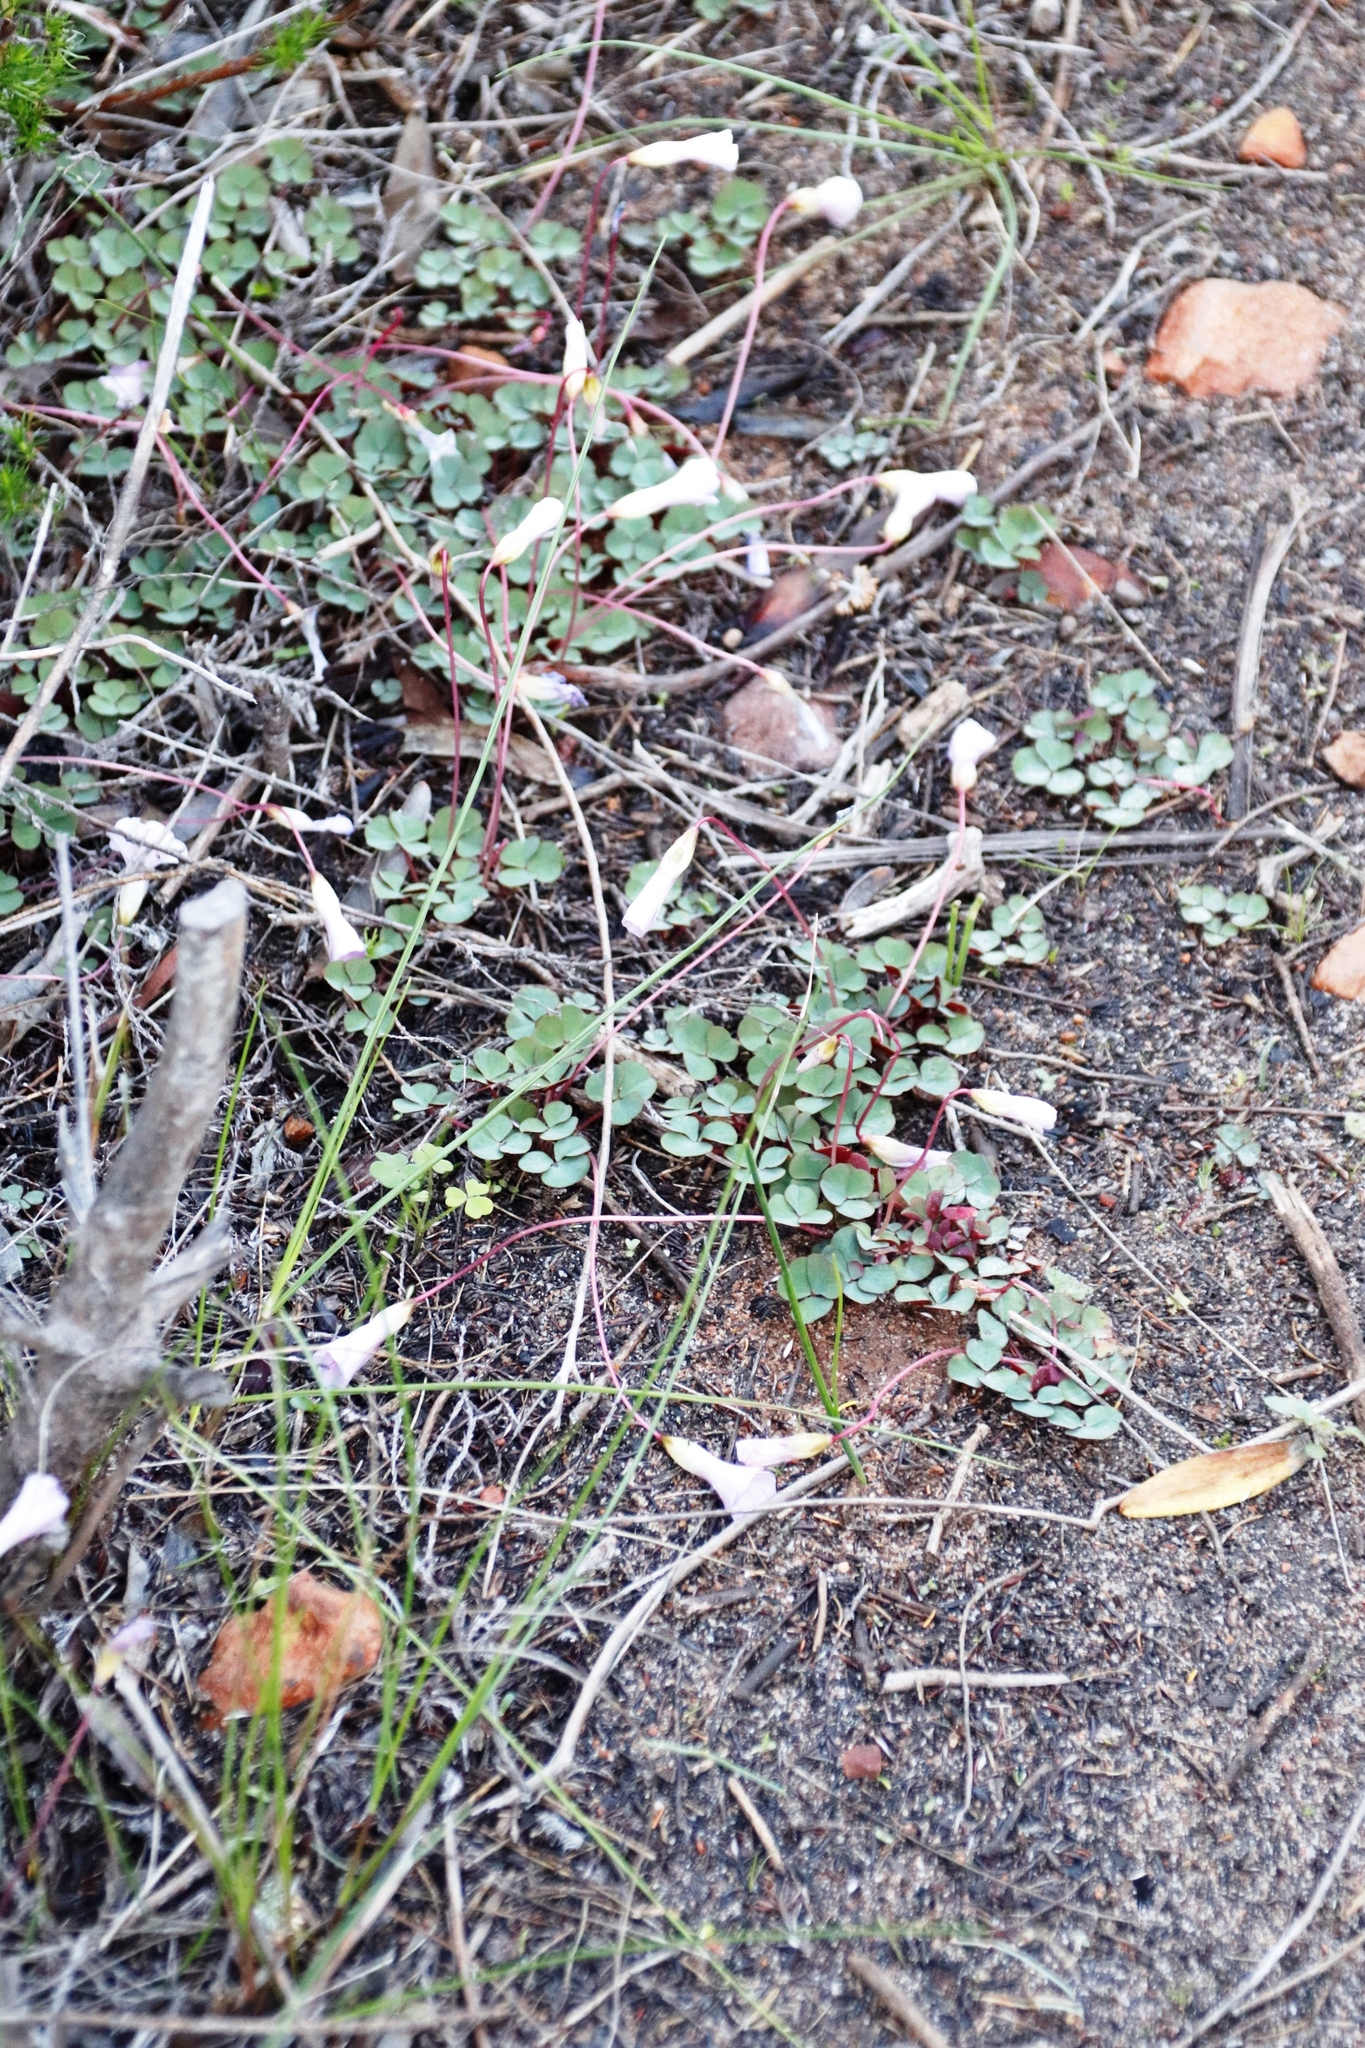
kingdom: Plantae
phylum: Tracheophyta
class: Magnoliopsida
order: Oxalidales
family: Oxalidaceae
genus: Oxalis
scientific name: Oxalis commutata
